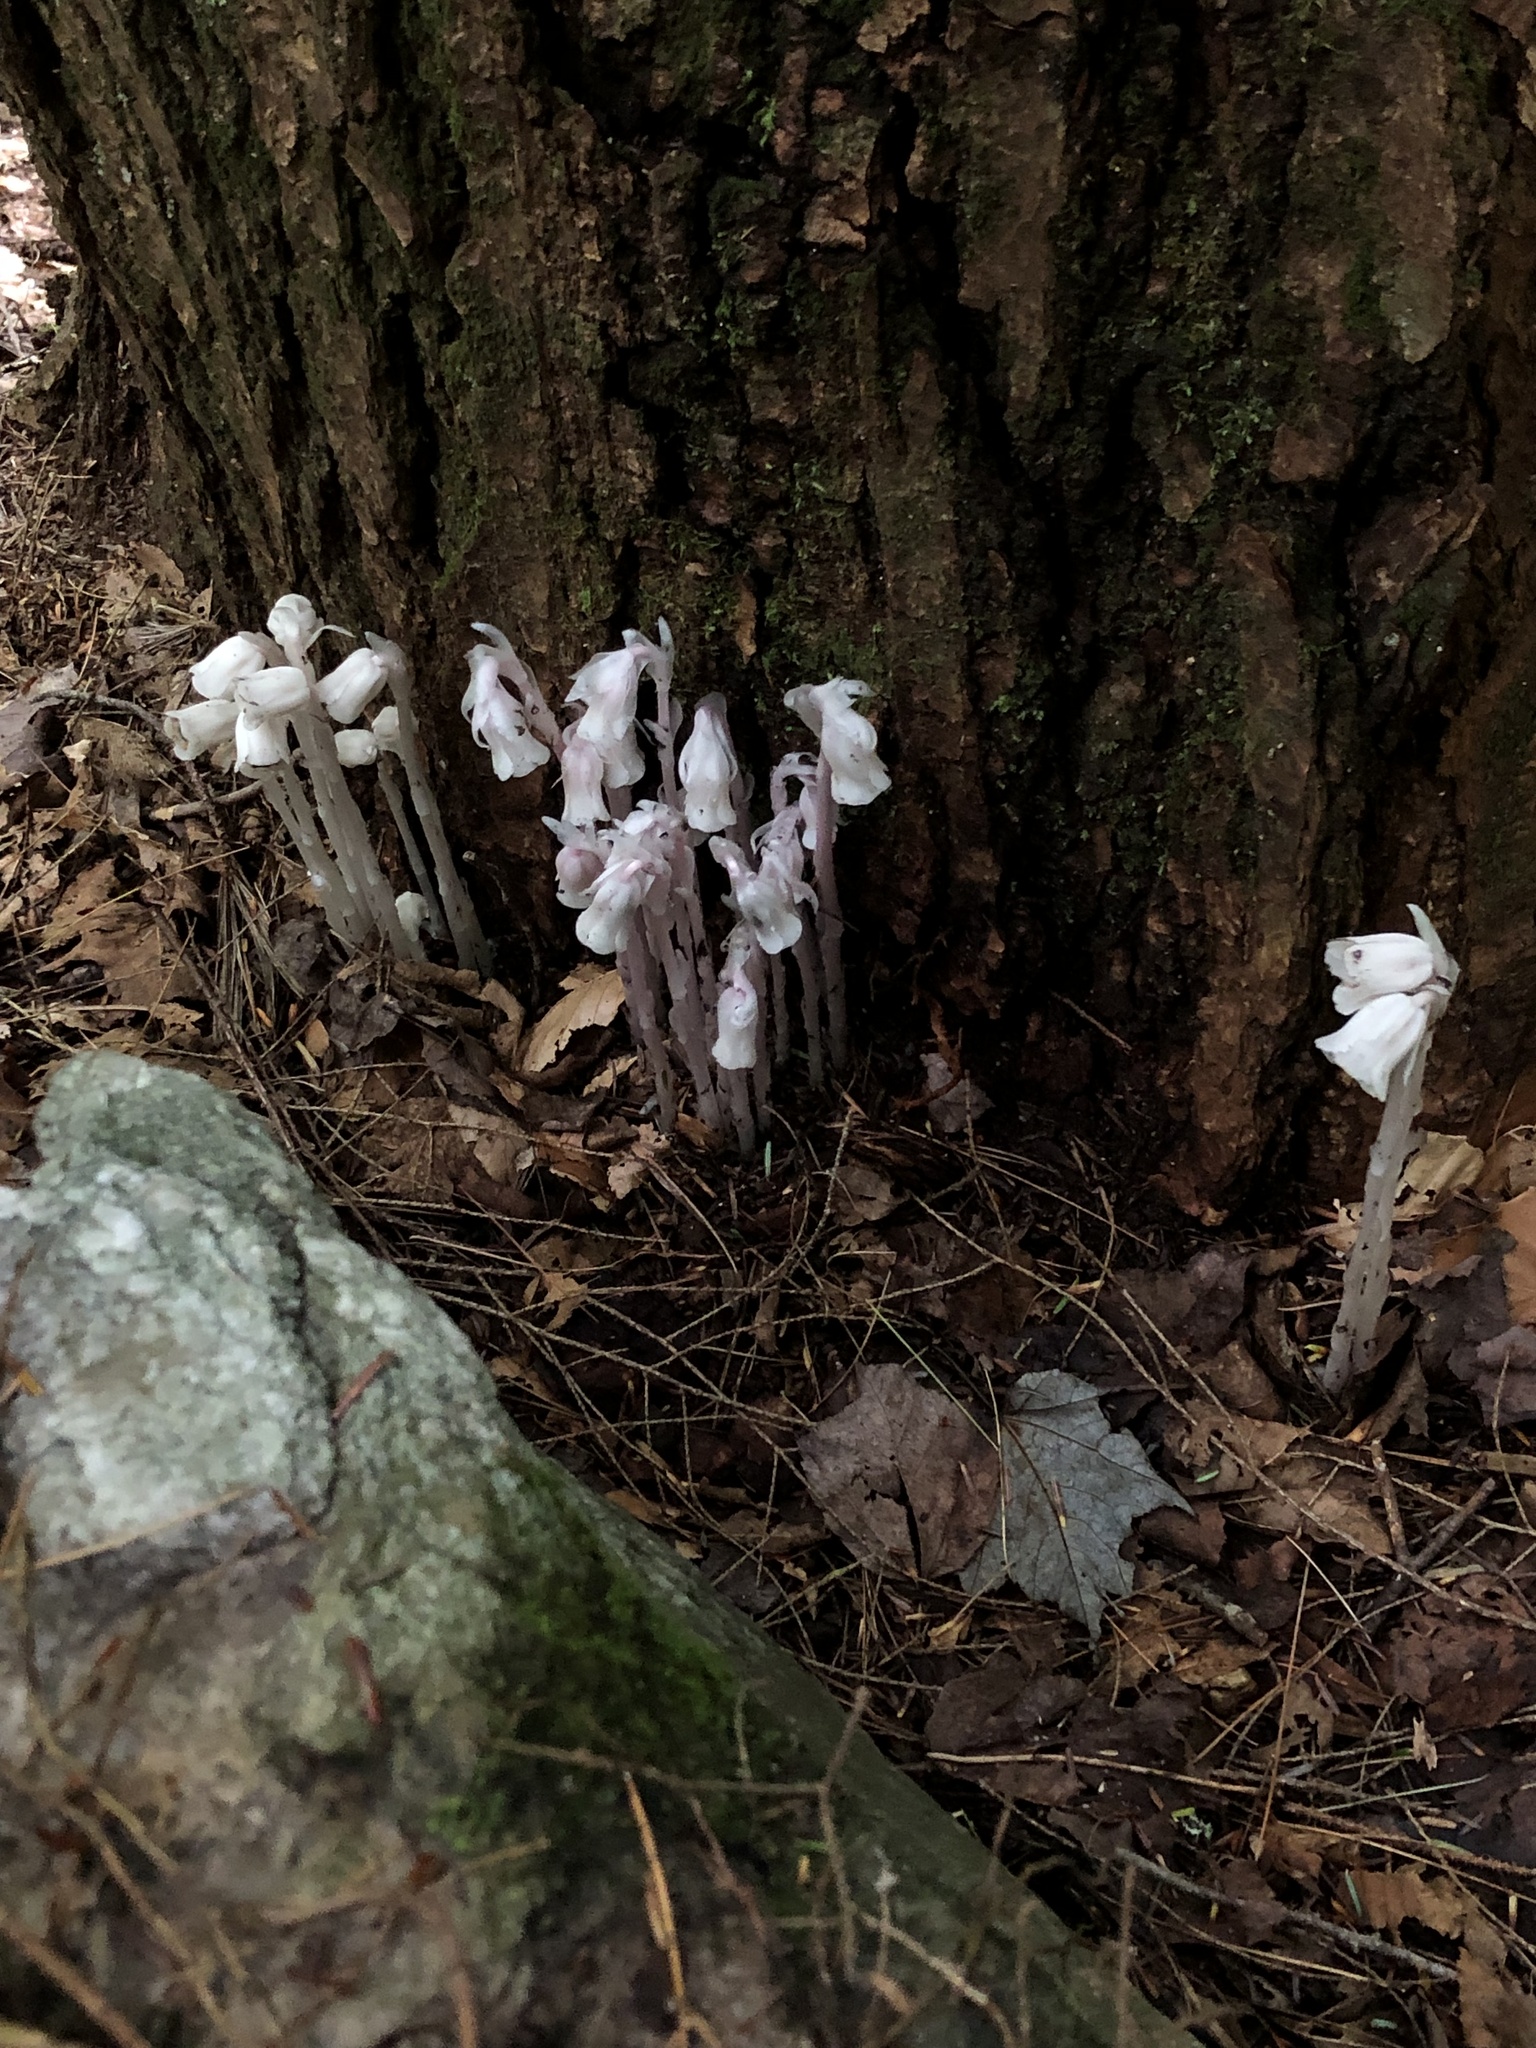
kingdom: Plantae
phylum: Tracheophyta
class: Magnoliopsida
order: Ericales
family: Ericaceae
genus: Monotropa
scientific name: Monotropa uniflora
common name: Convulsion root
